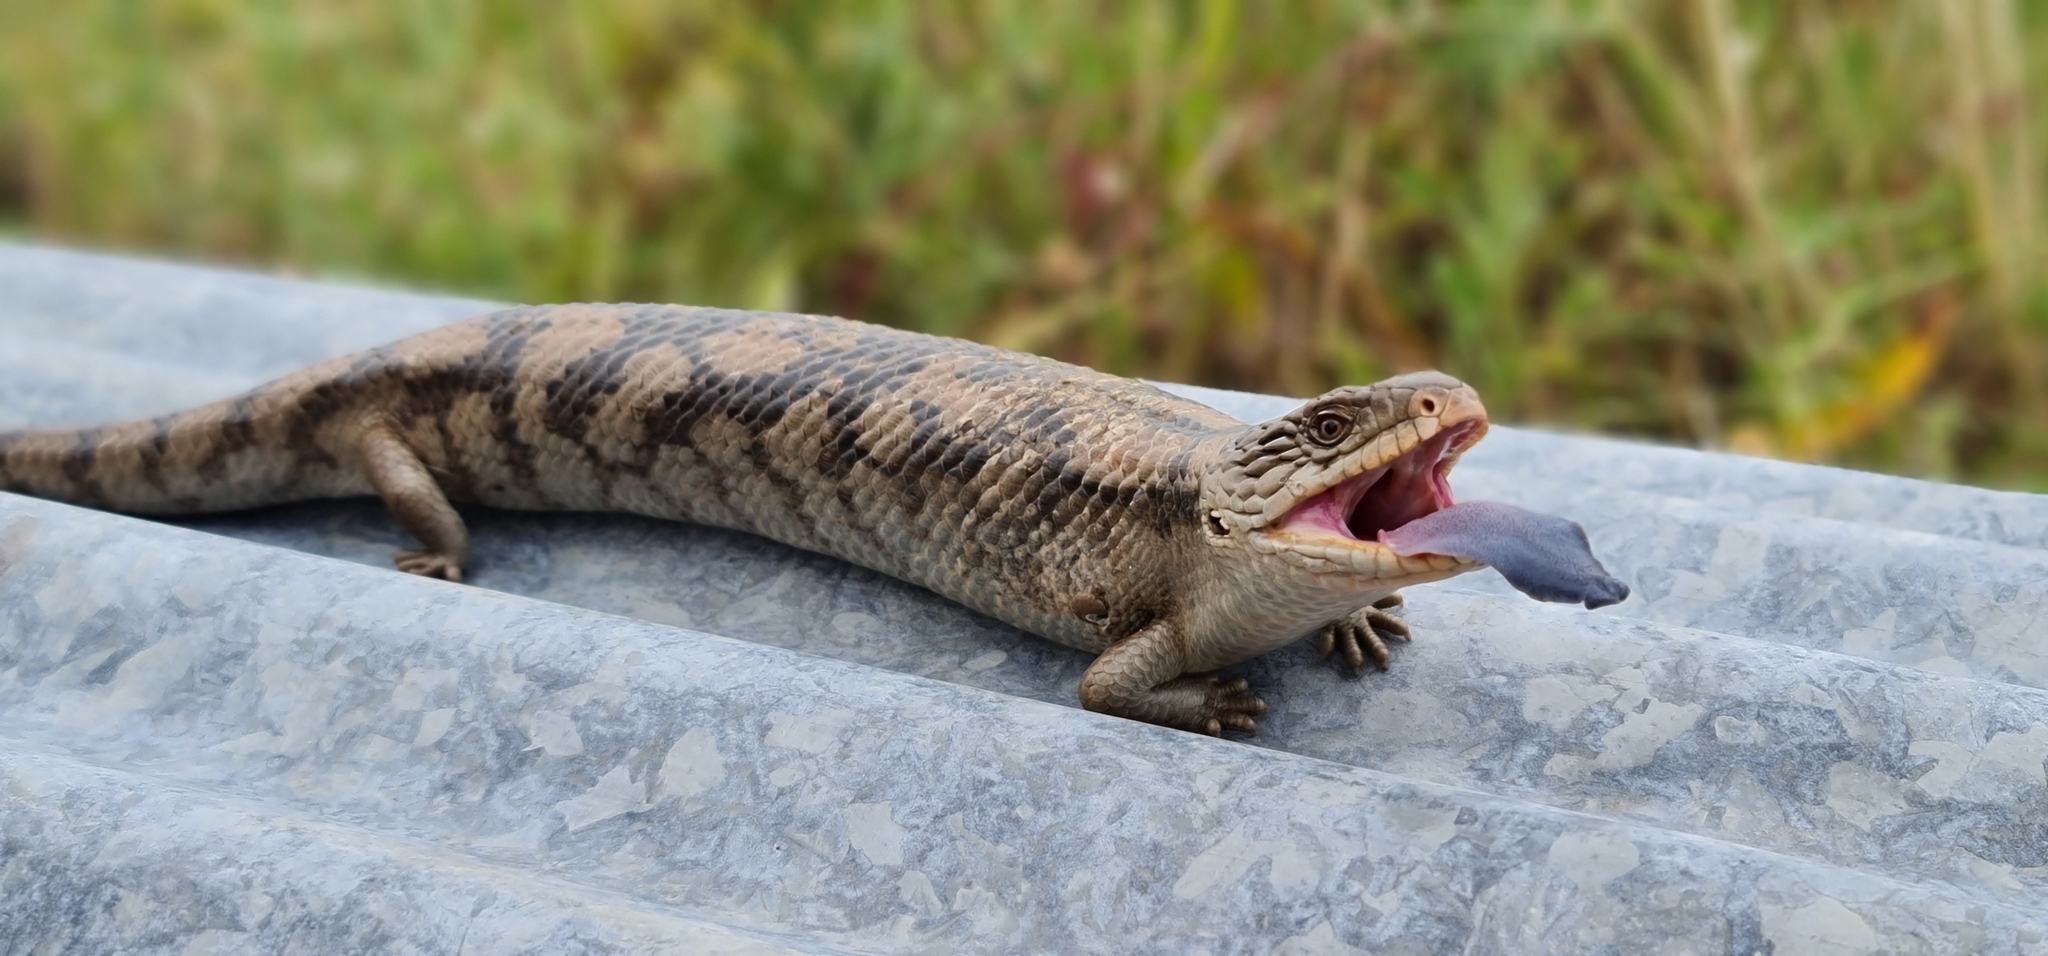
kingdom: Animalia
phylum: Chordata
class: Squamata
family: Scincidae
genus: Tiliqua
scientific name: Tiliqua nigrolutea
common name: Blotched blue-tongued lizard
